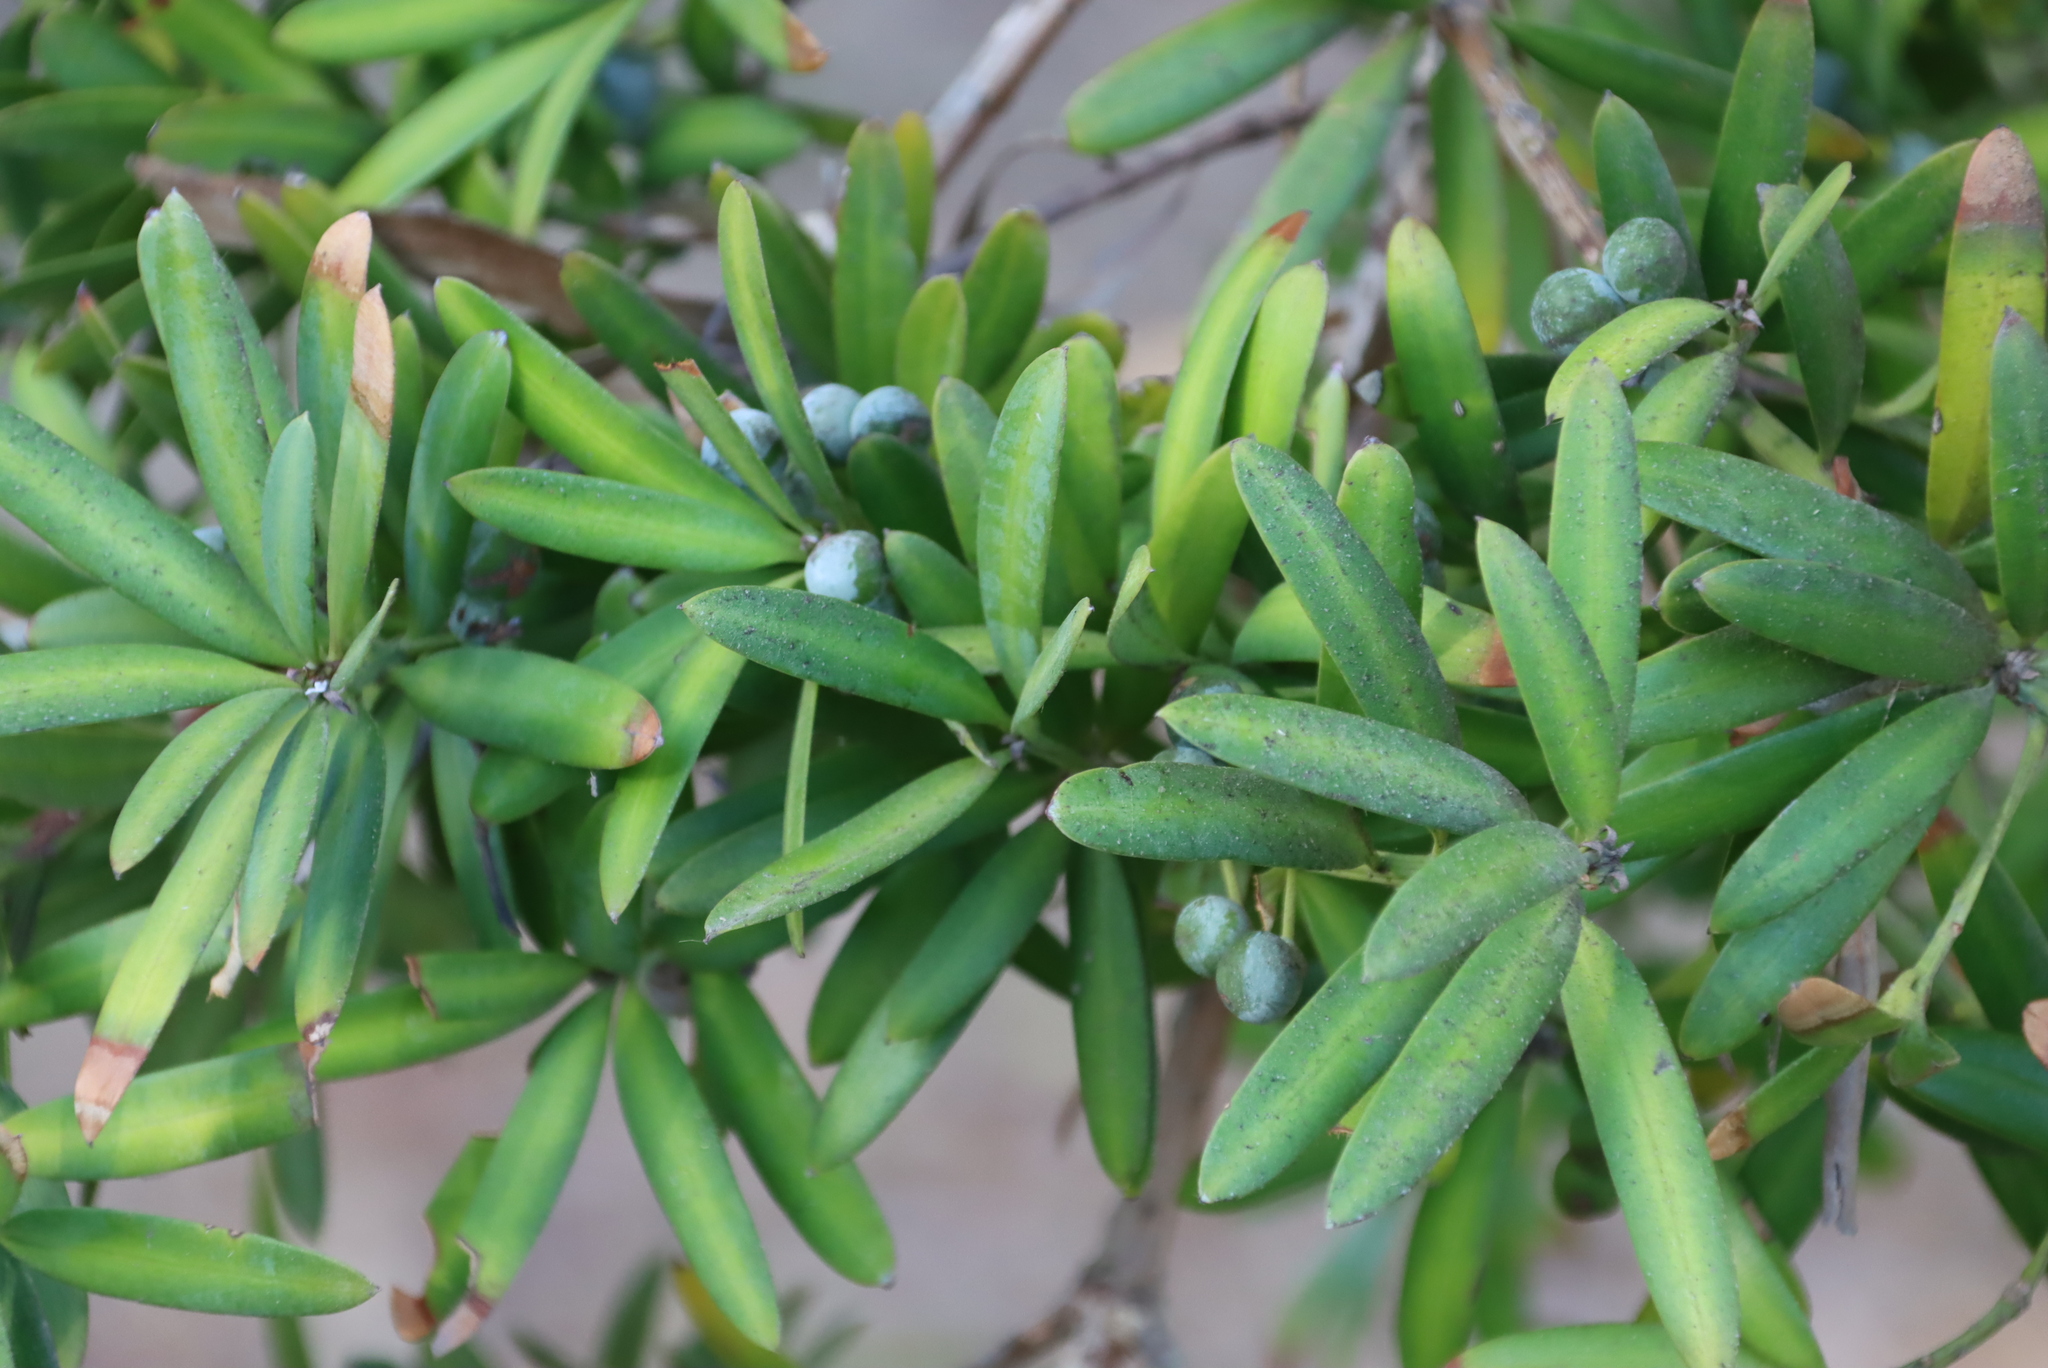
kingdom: Plantae
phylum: Tracheophyta
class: Pinopsida
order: Pinales
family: Podocarpaceae
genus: Podocarpus
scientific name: Podocarpus latifolius
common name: True yellowwood
